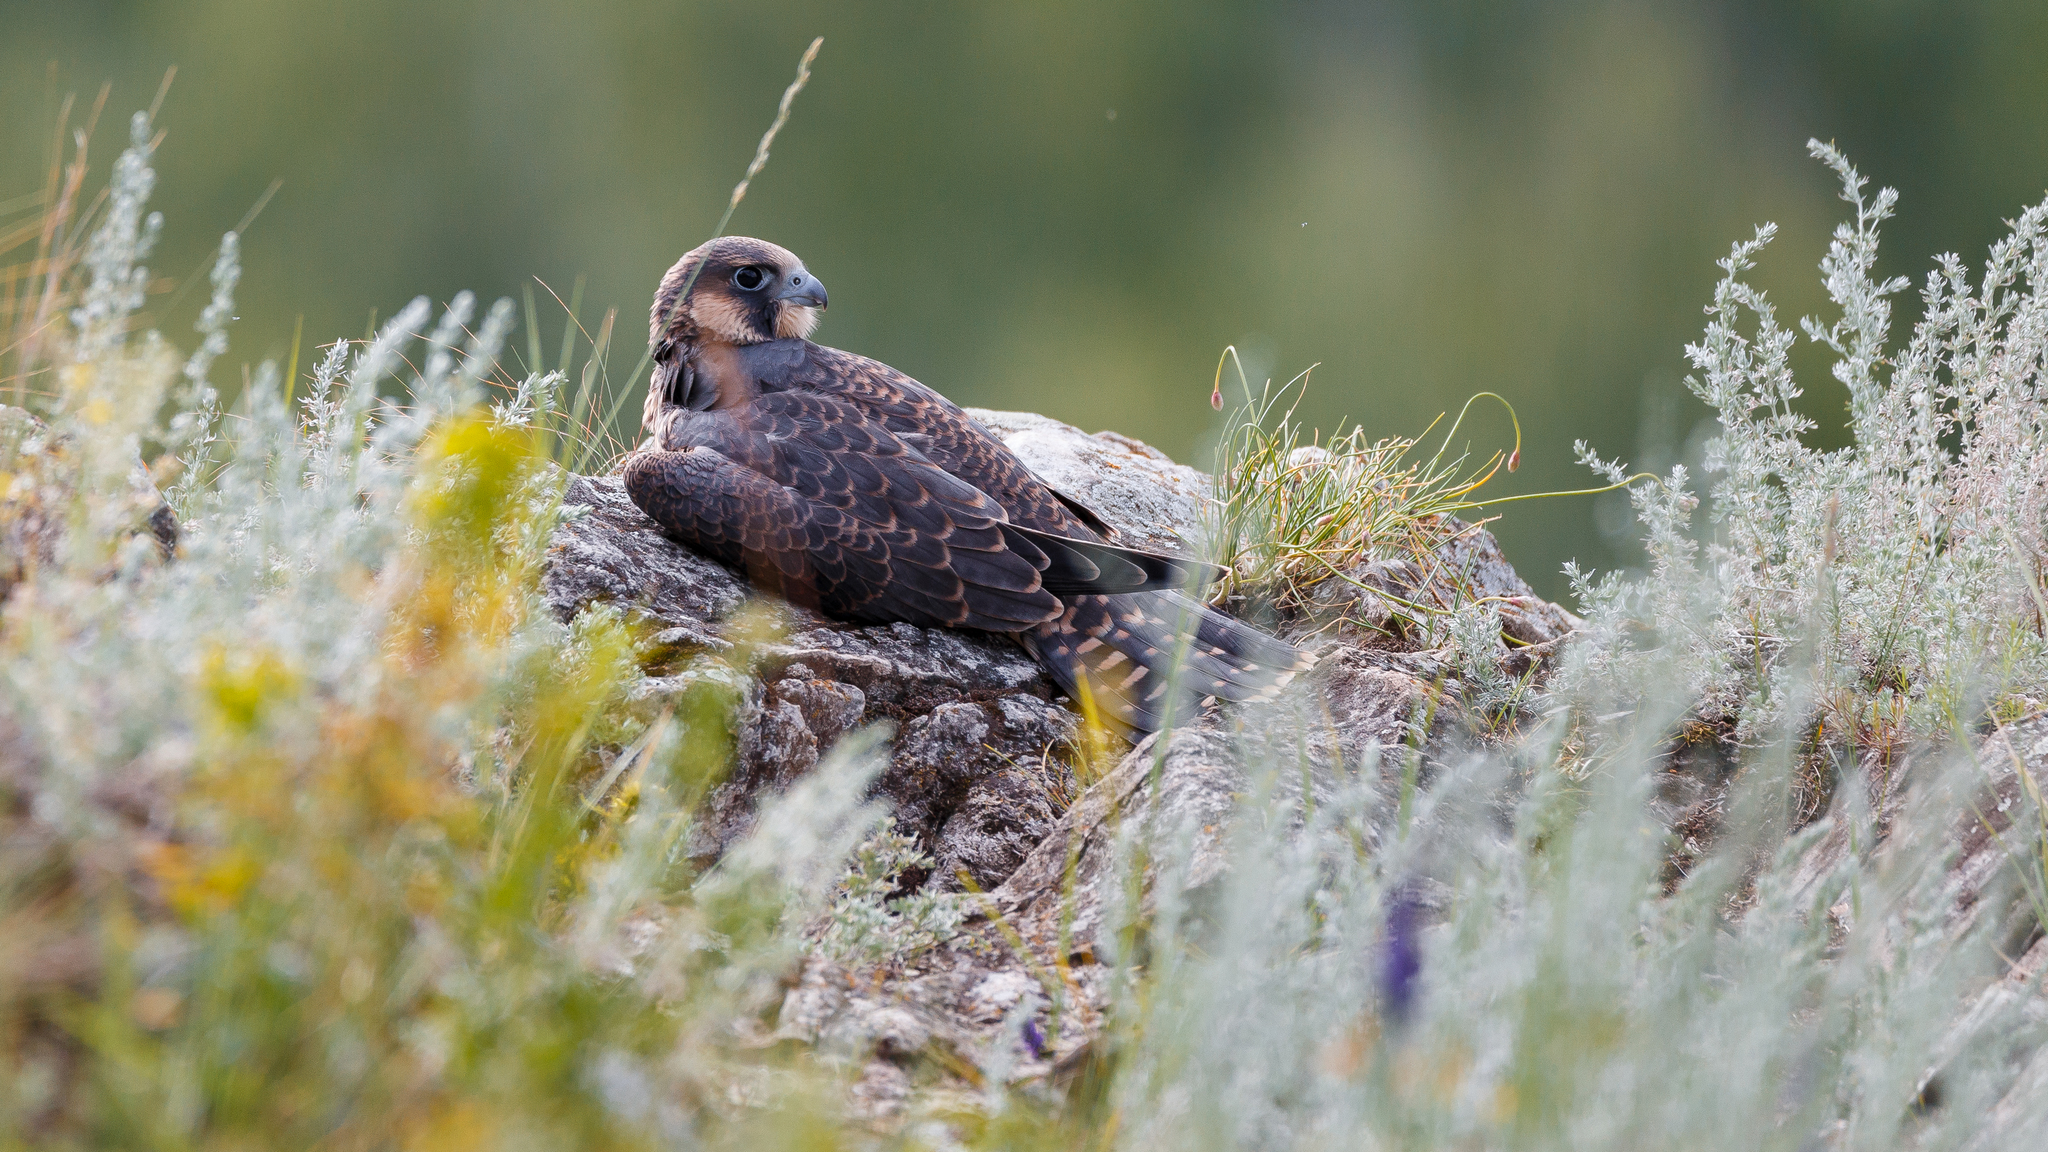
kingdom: Animalia
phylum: Chordata
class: Aves
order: Falconiformes
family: Falconidae
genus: Falco
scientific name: Falco peregrinus
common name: Peregrine falcon
